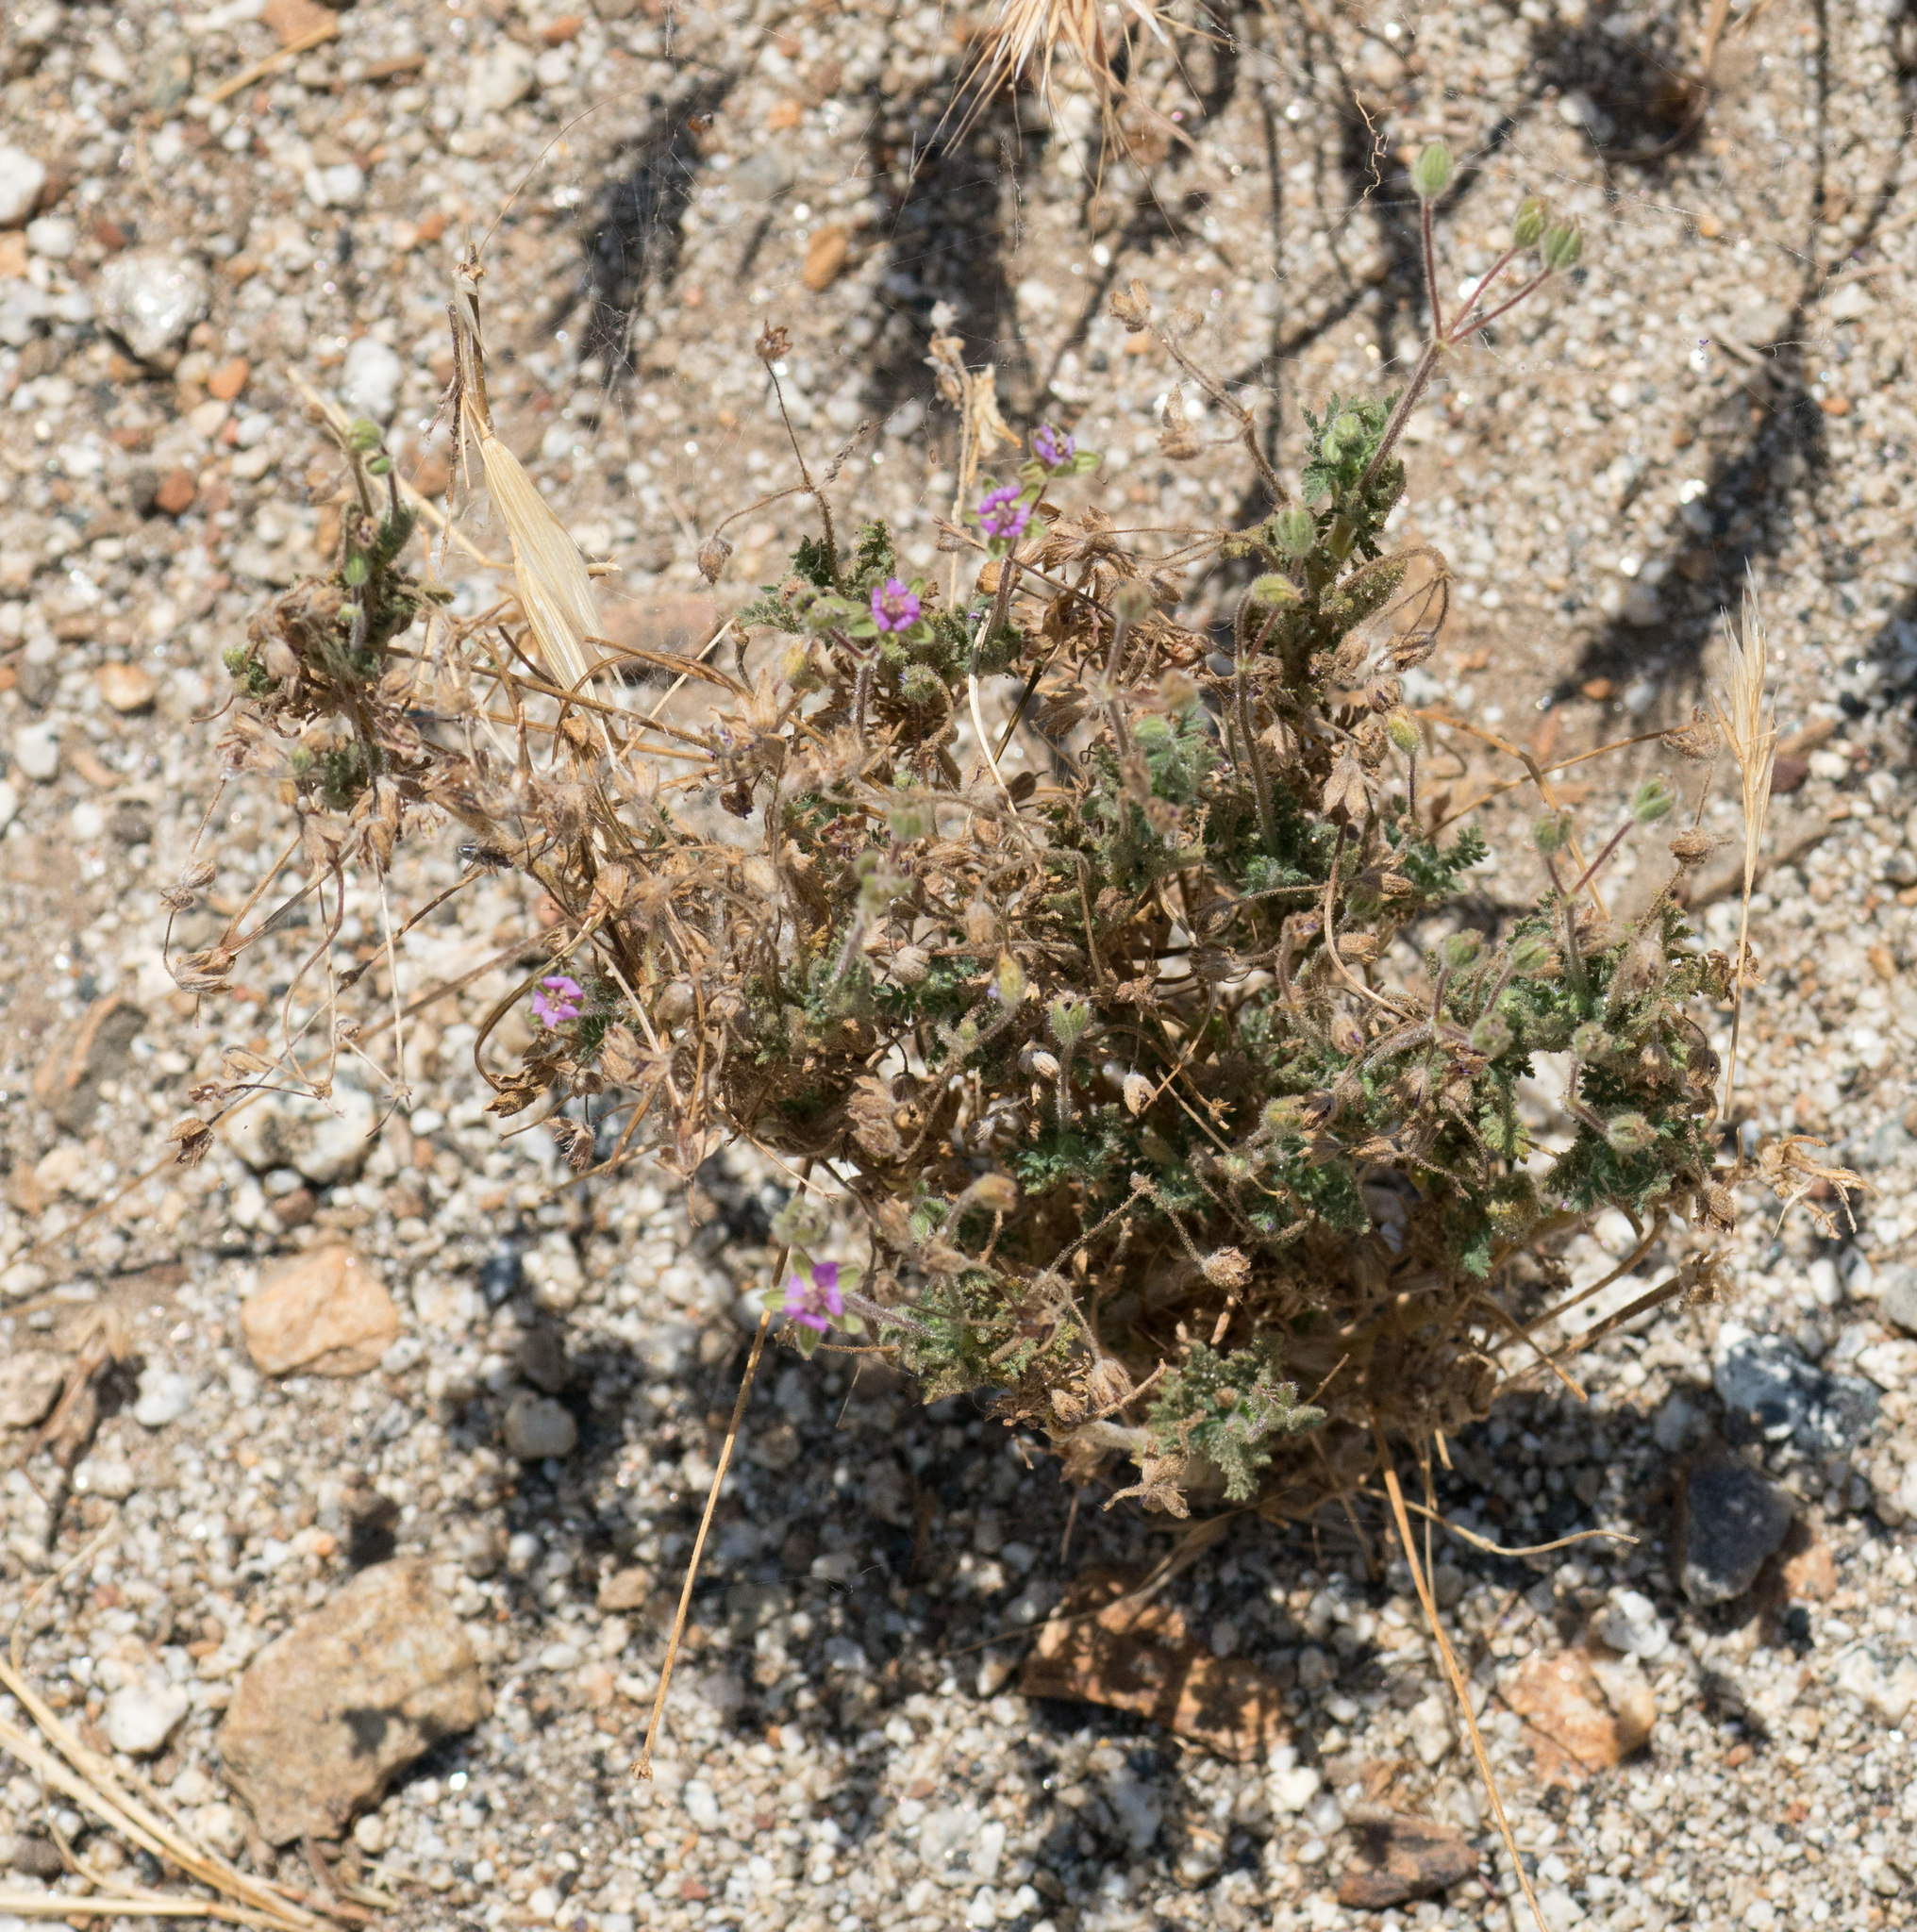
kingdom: Plantae
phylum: Tracheophyta
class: Magnoliopsida
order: Geraniales
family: Geraniaceae
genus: Erodium
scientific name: Erodium cicutarium
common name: Common stork's-bill
